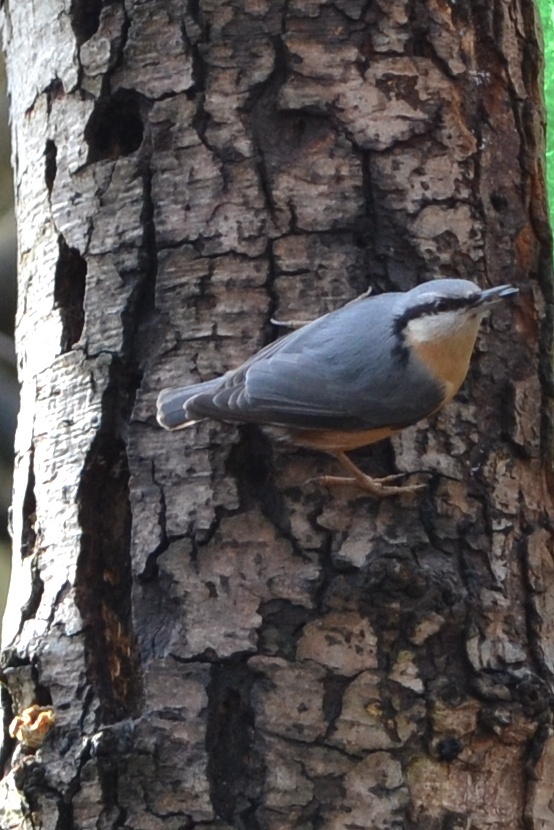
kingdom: Animalia
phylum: Chordata
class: Aves
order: Passeriformes
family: Sittidae
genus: Sitta
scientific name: Sitta europaea
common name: Eurasian nuthatch
